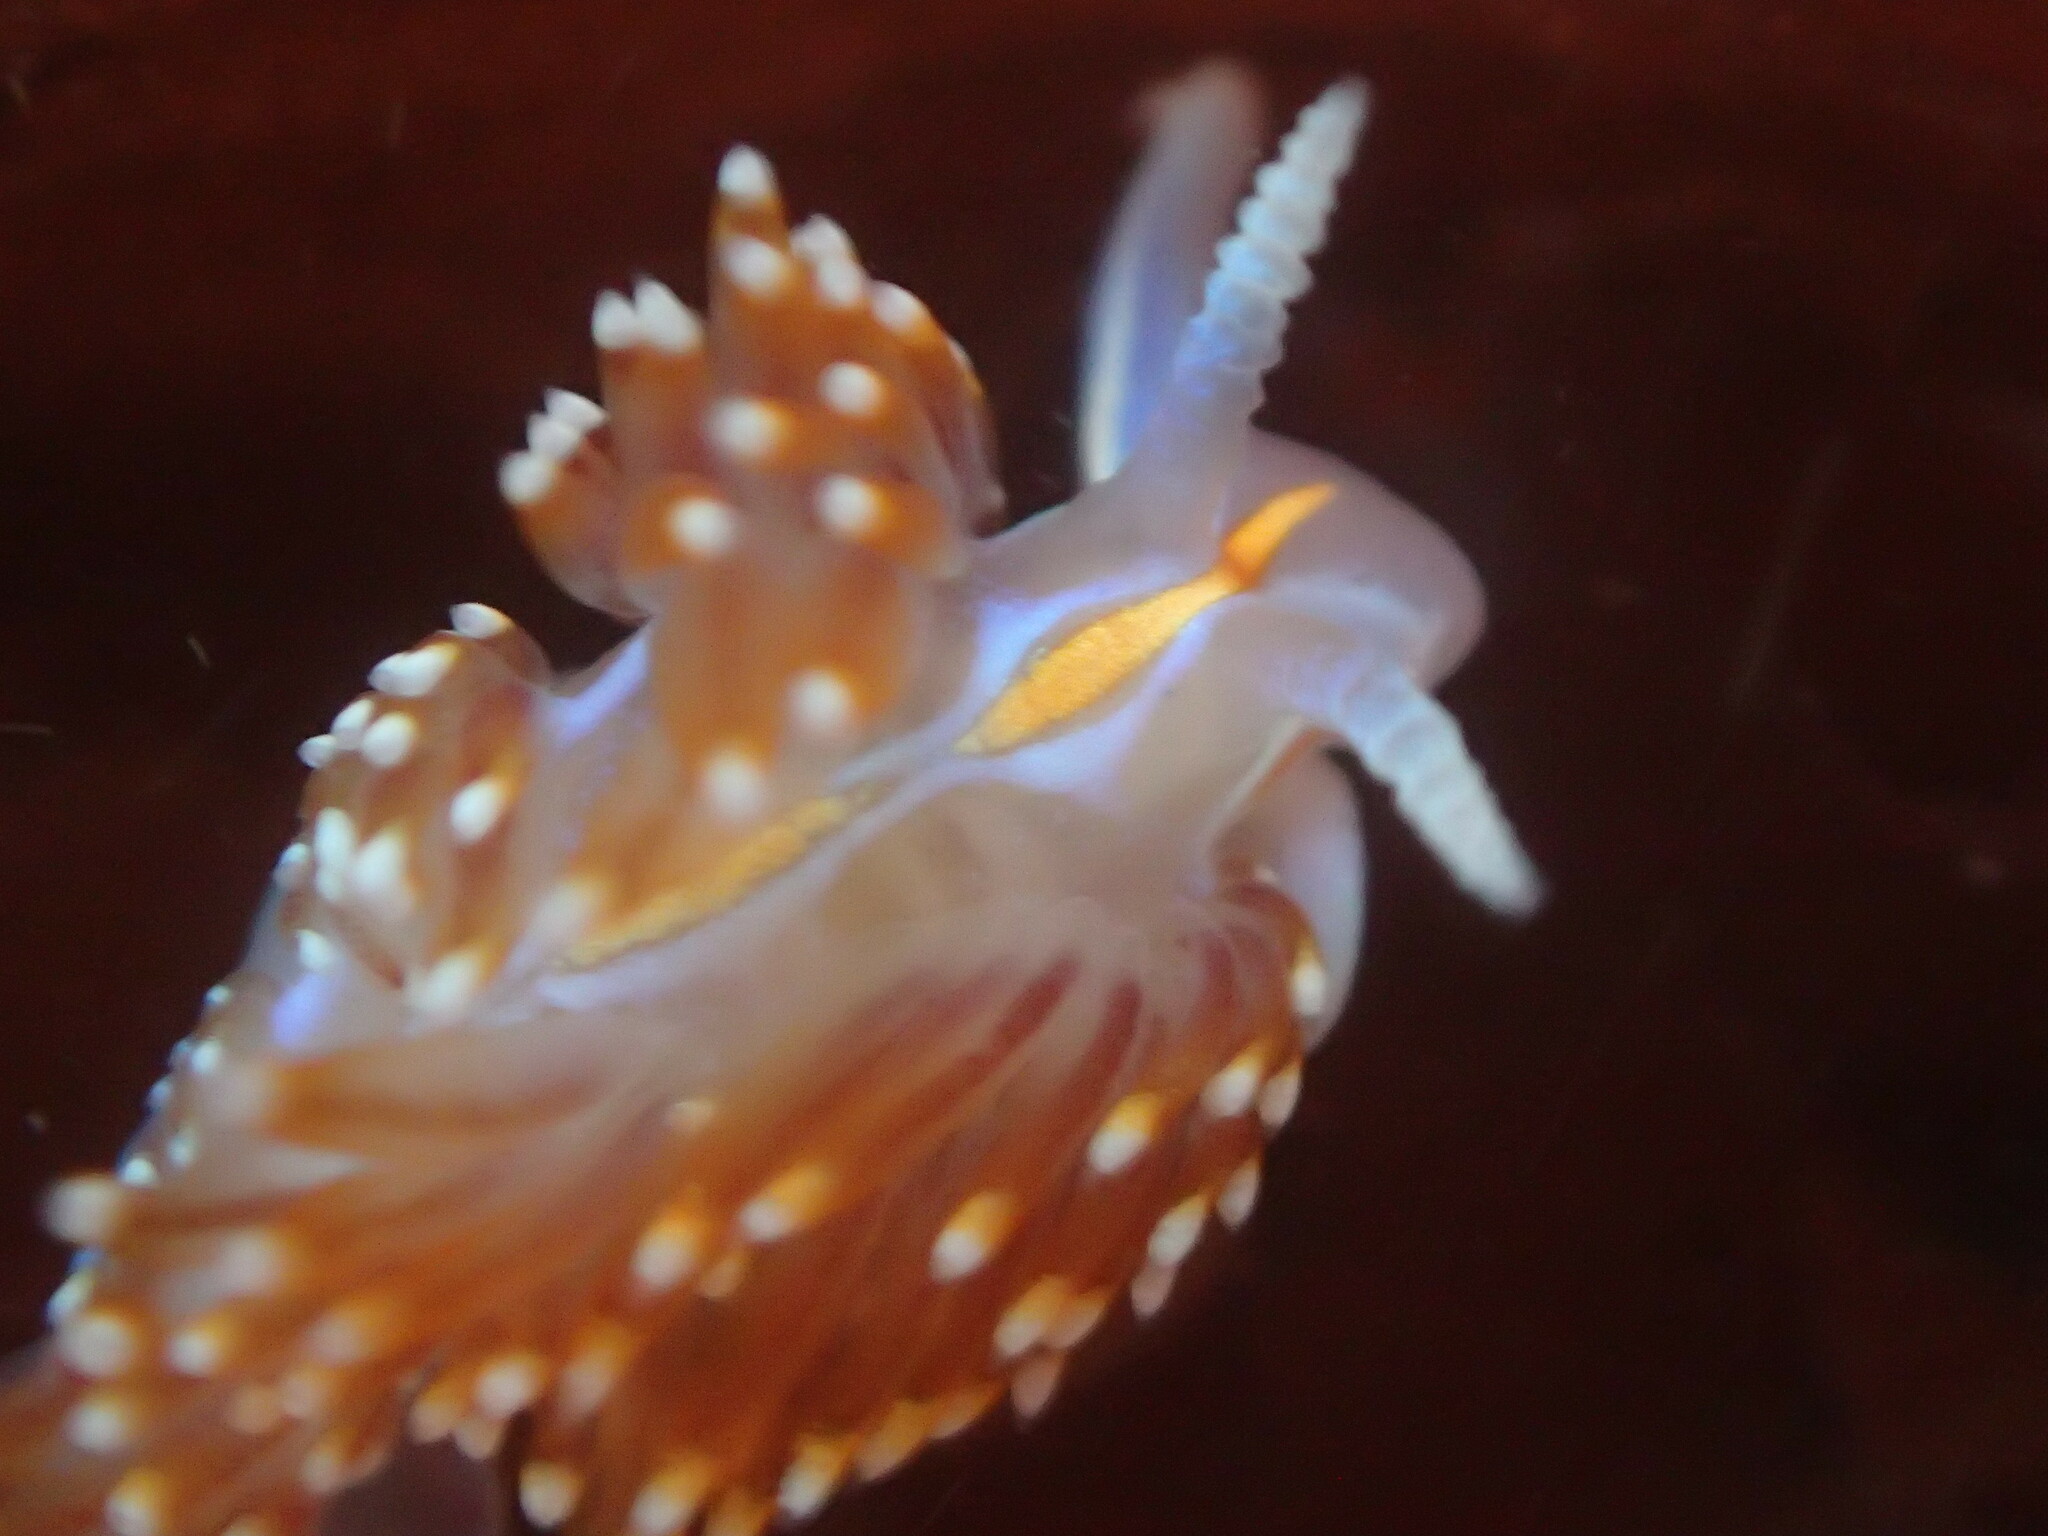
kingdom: Animalia
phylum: Mollusca
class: Gastropoda
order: Nudibranchia
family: Myrrhinidae
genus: Hermissenda
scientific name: Hermissenda opalescens
